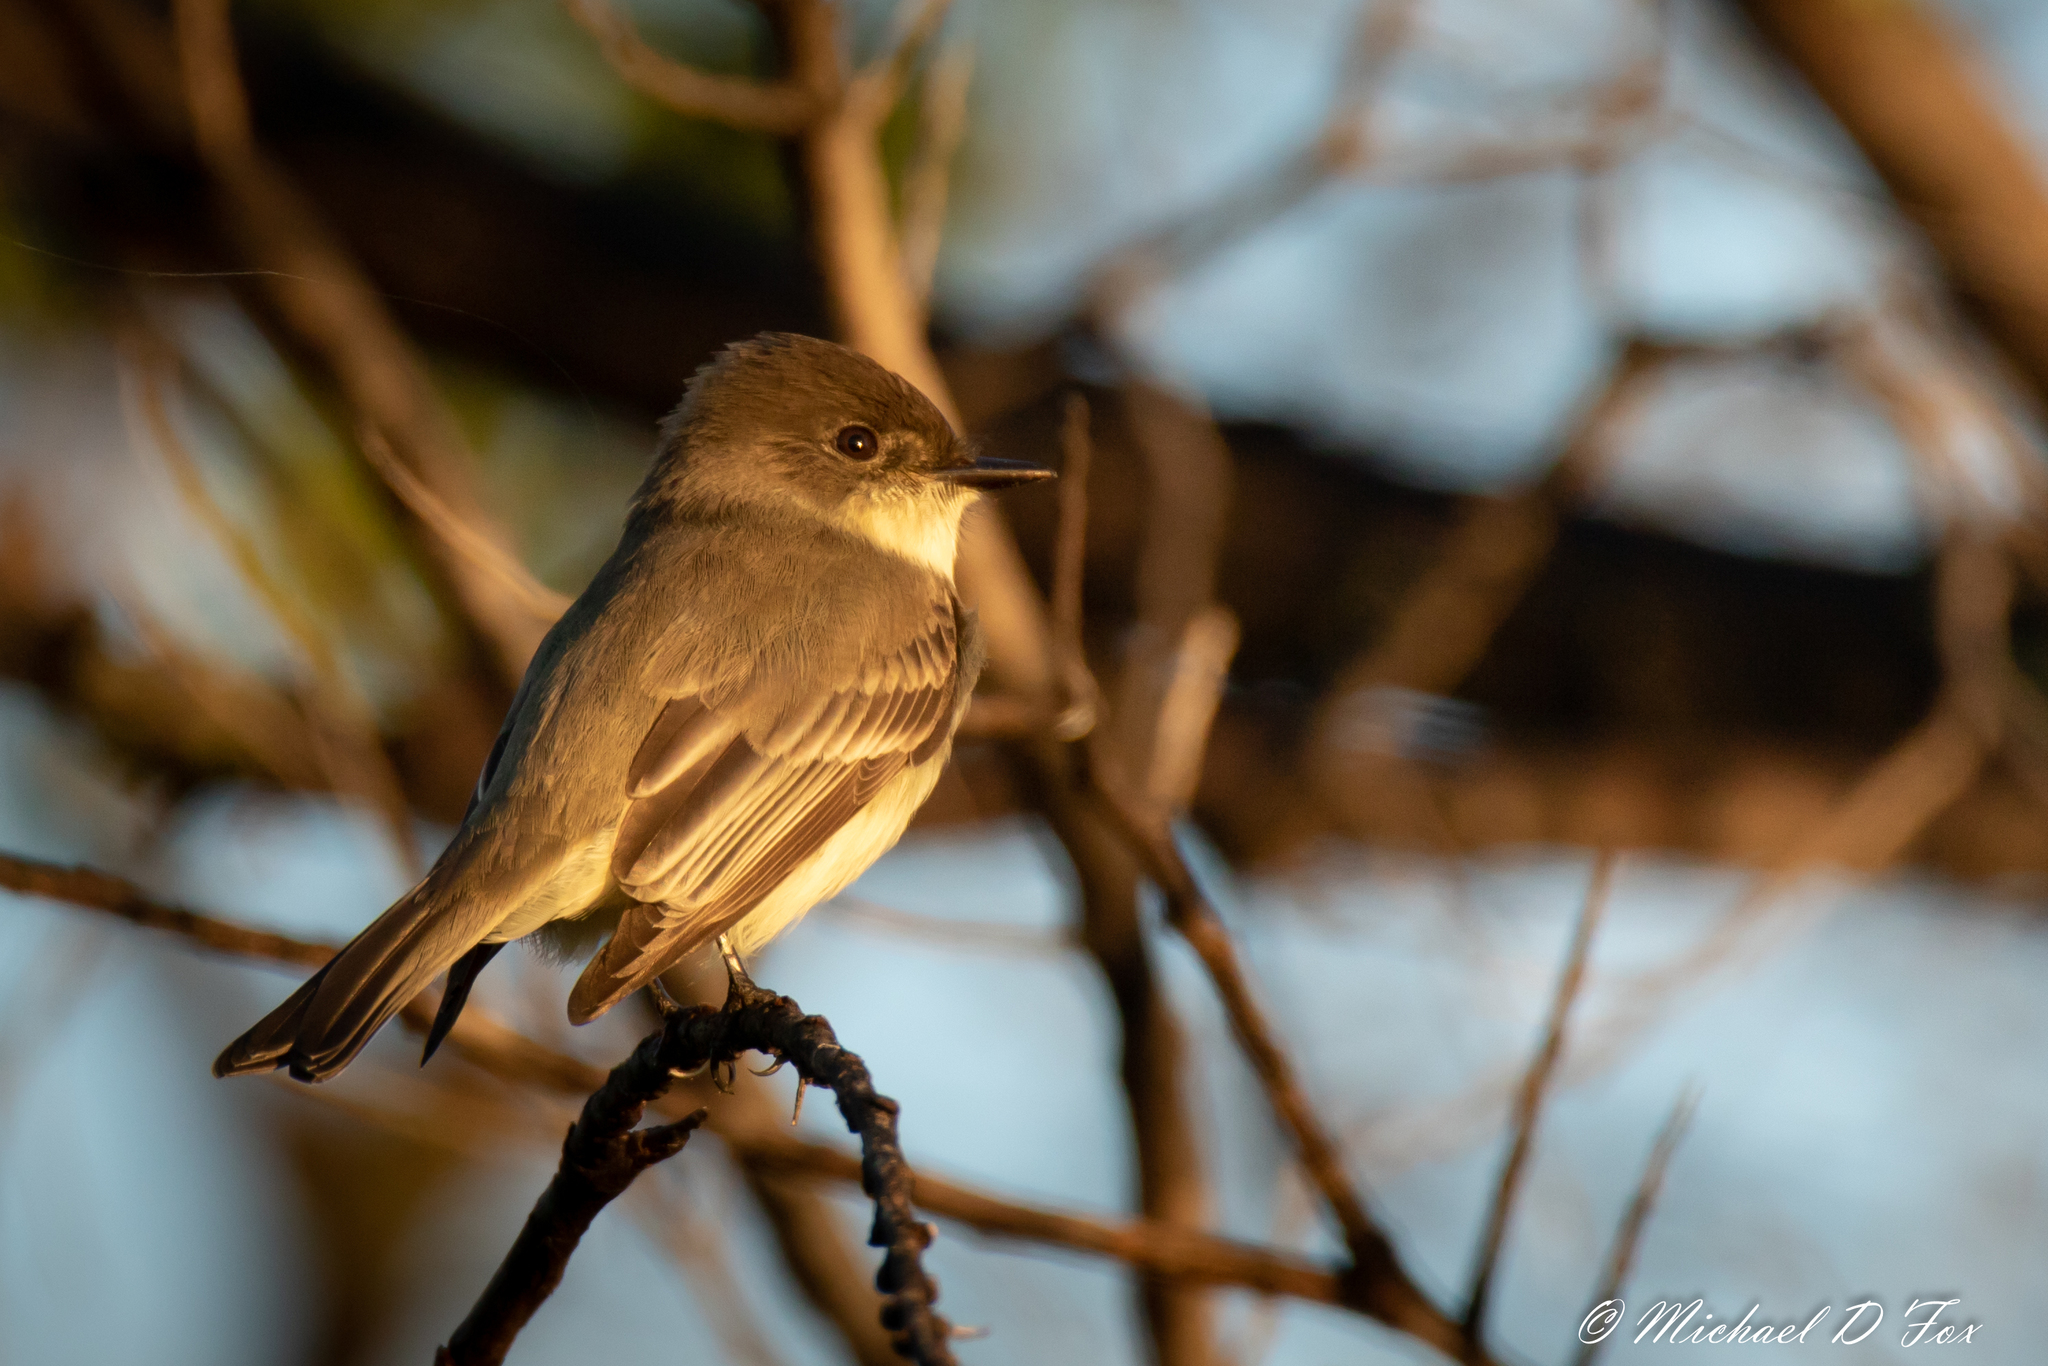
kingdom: Animalia
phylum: Chordata
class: Aves
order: Passeriformes
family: Tyrannidae
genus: Sayornis
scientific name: Sayornis phoebe
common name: Eastern phoebe
